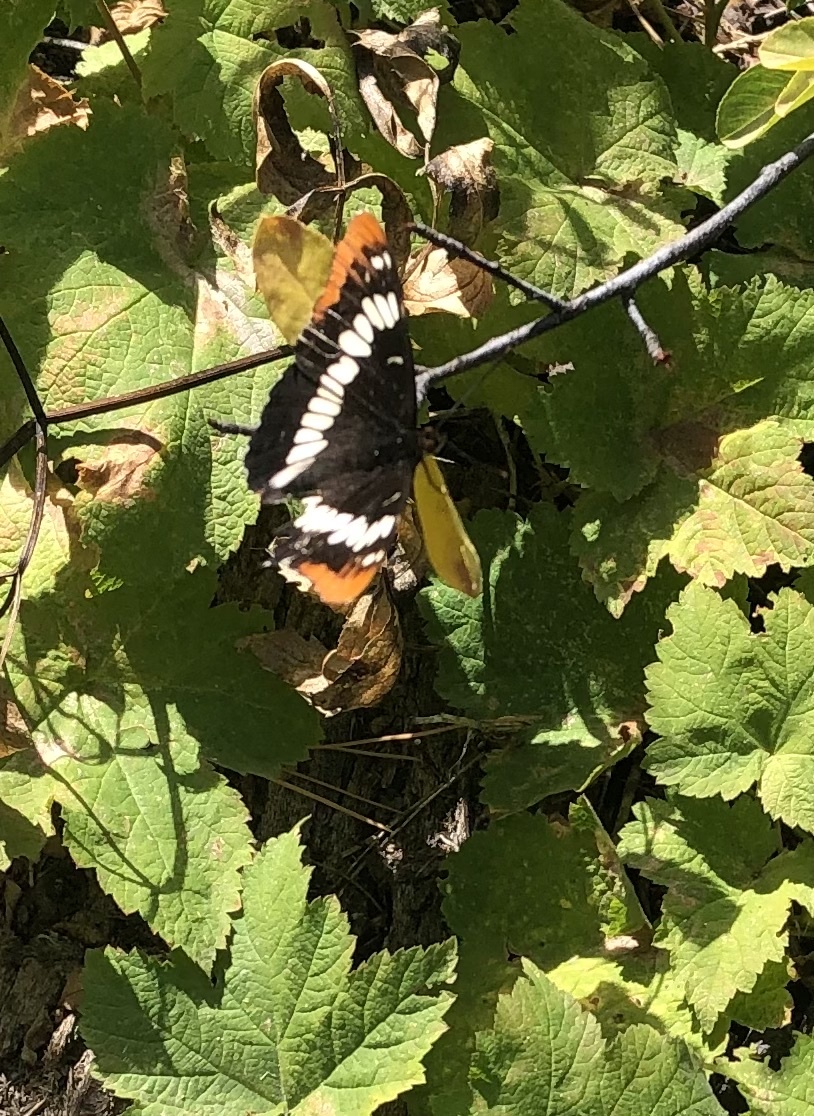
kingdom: Animalia
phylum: Arthropoda
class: Insecta
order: Lepidoptera
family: Nymphalidae
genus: Limenitis
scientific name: Limenitis lorquini
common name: Lorquin's admiral
